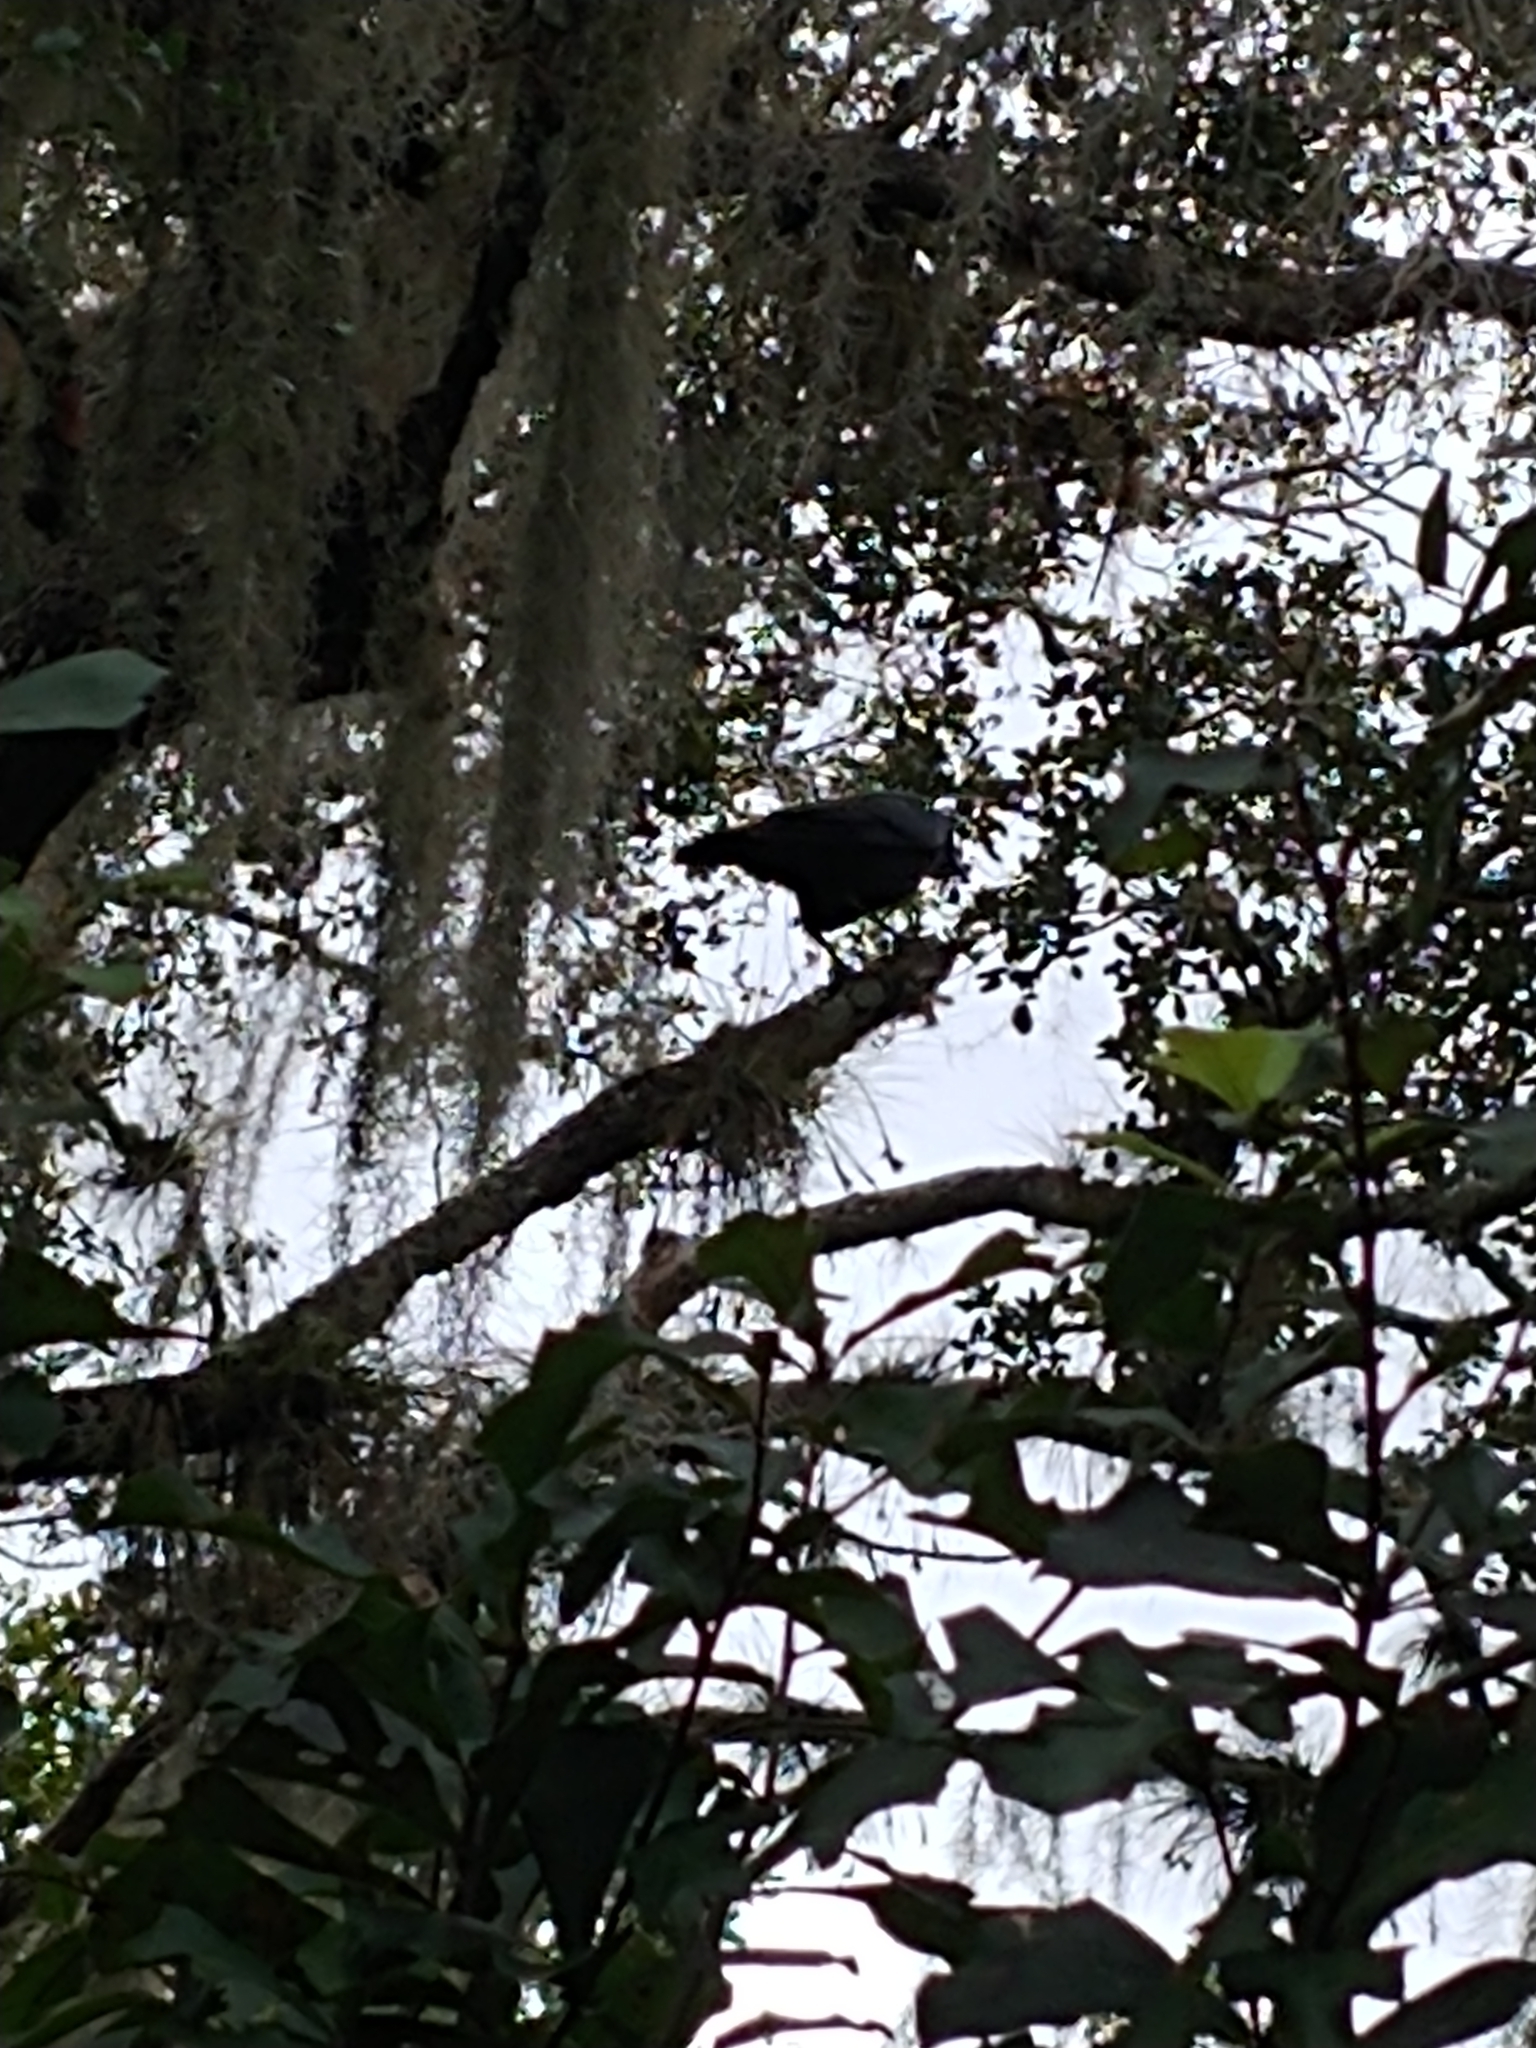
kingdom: Animalia
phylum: Chordata
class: Aves
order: Passeriformes
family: Corvidae
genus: Corvus
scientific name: Corvus
